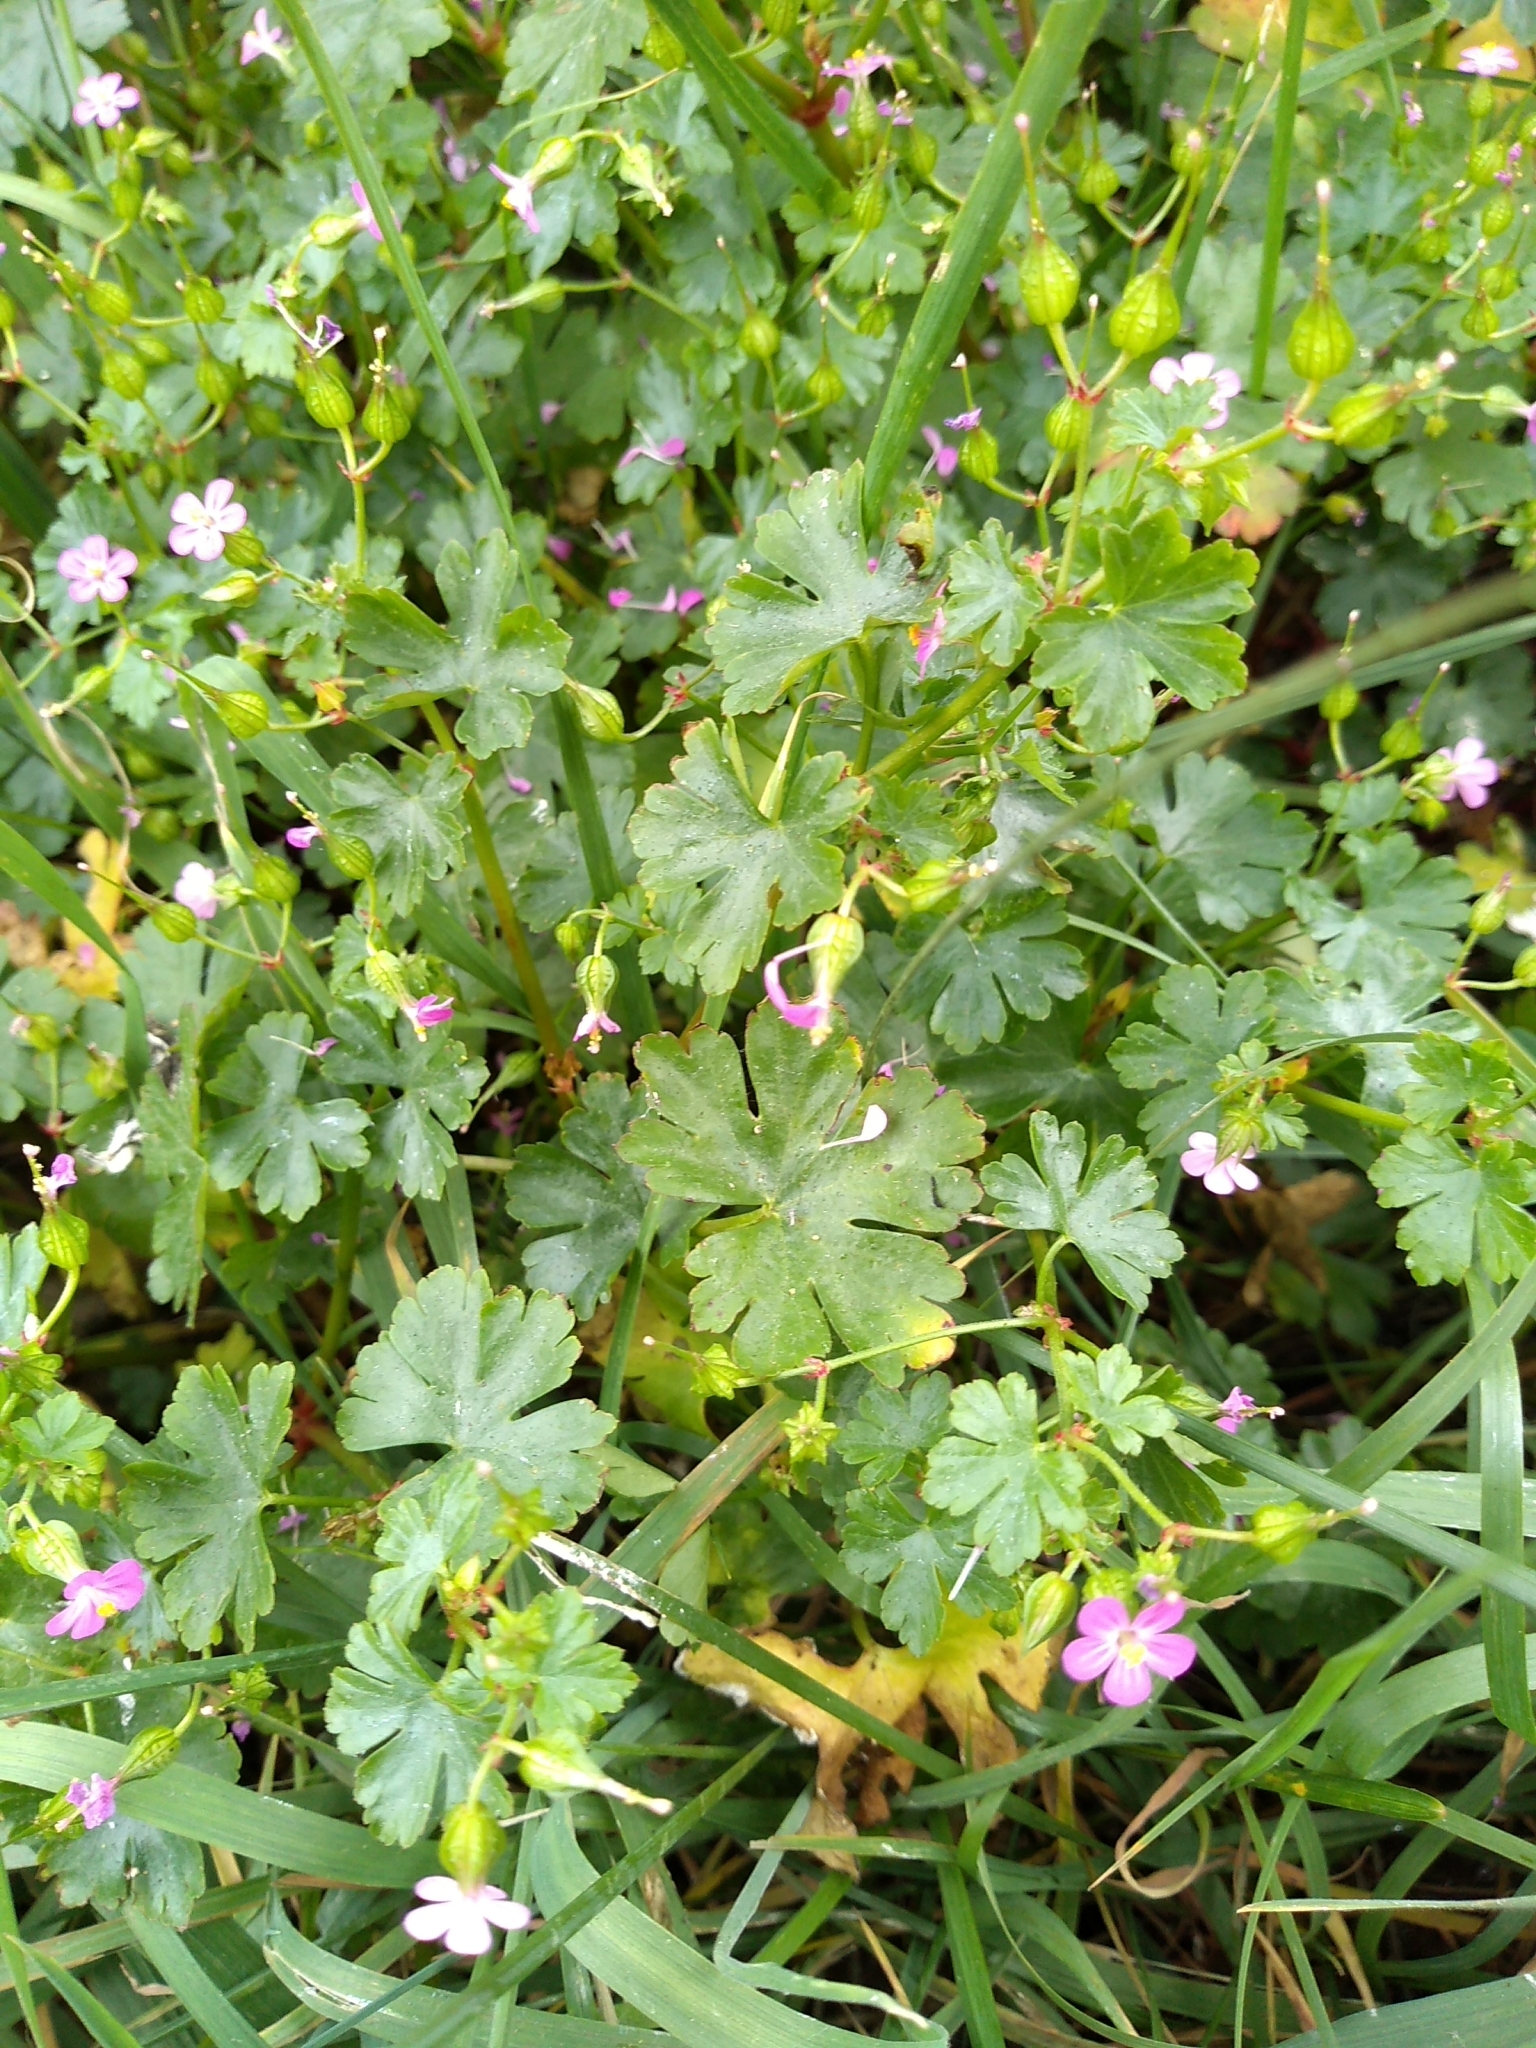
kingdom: Plantae
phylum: Tracheophyta
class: Magnoliopsida
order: Geraniales
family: Geraniaceae
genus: Geranium
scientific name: Geranium lucidum
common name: Shining crane's-bill
